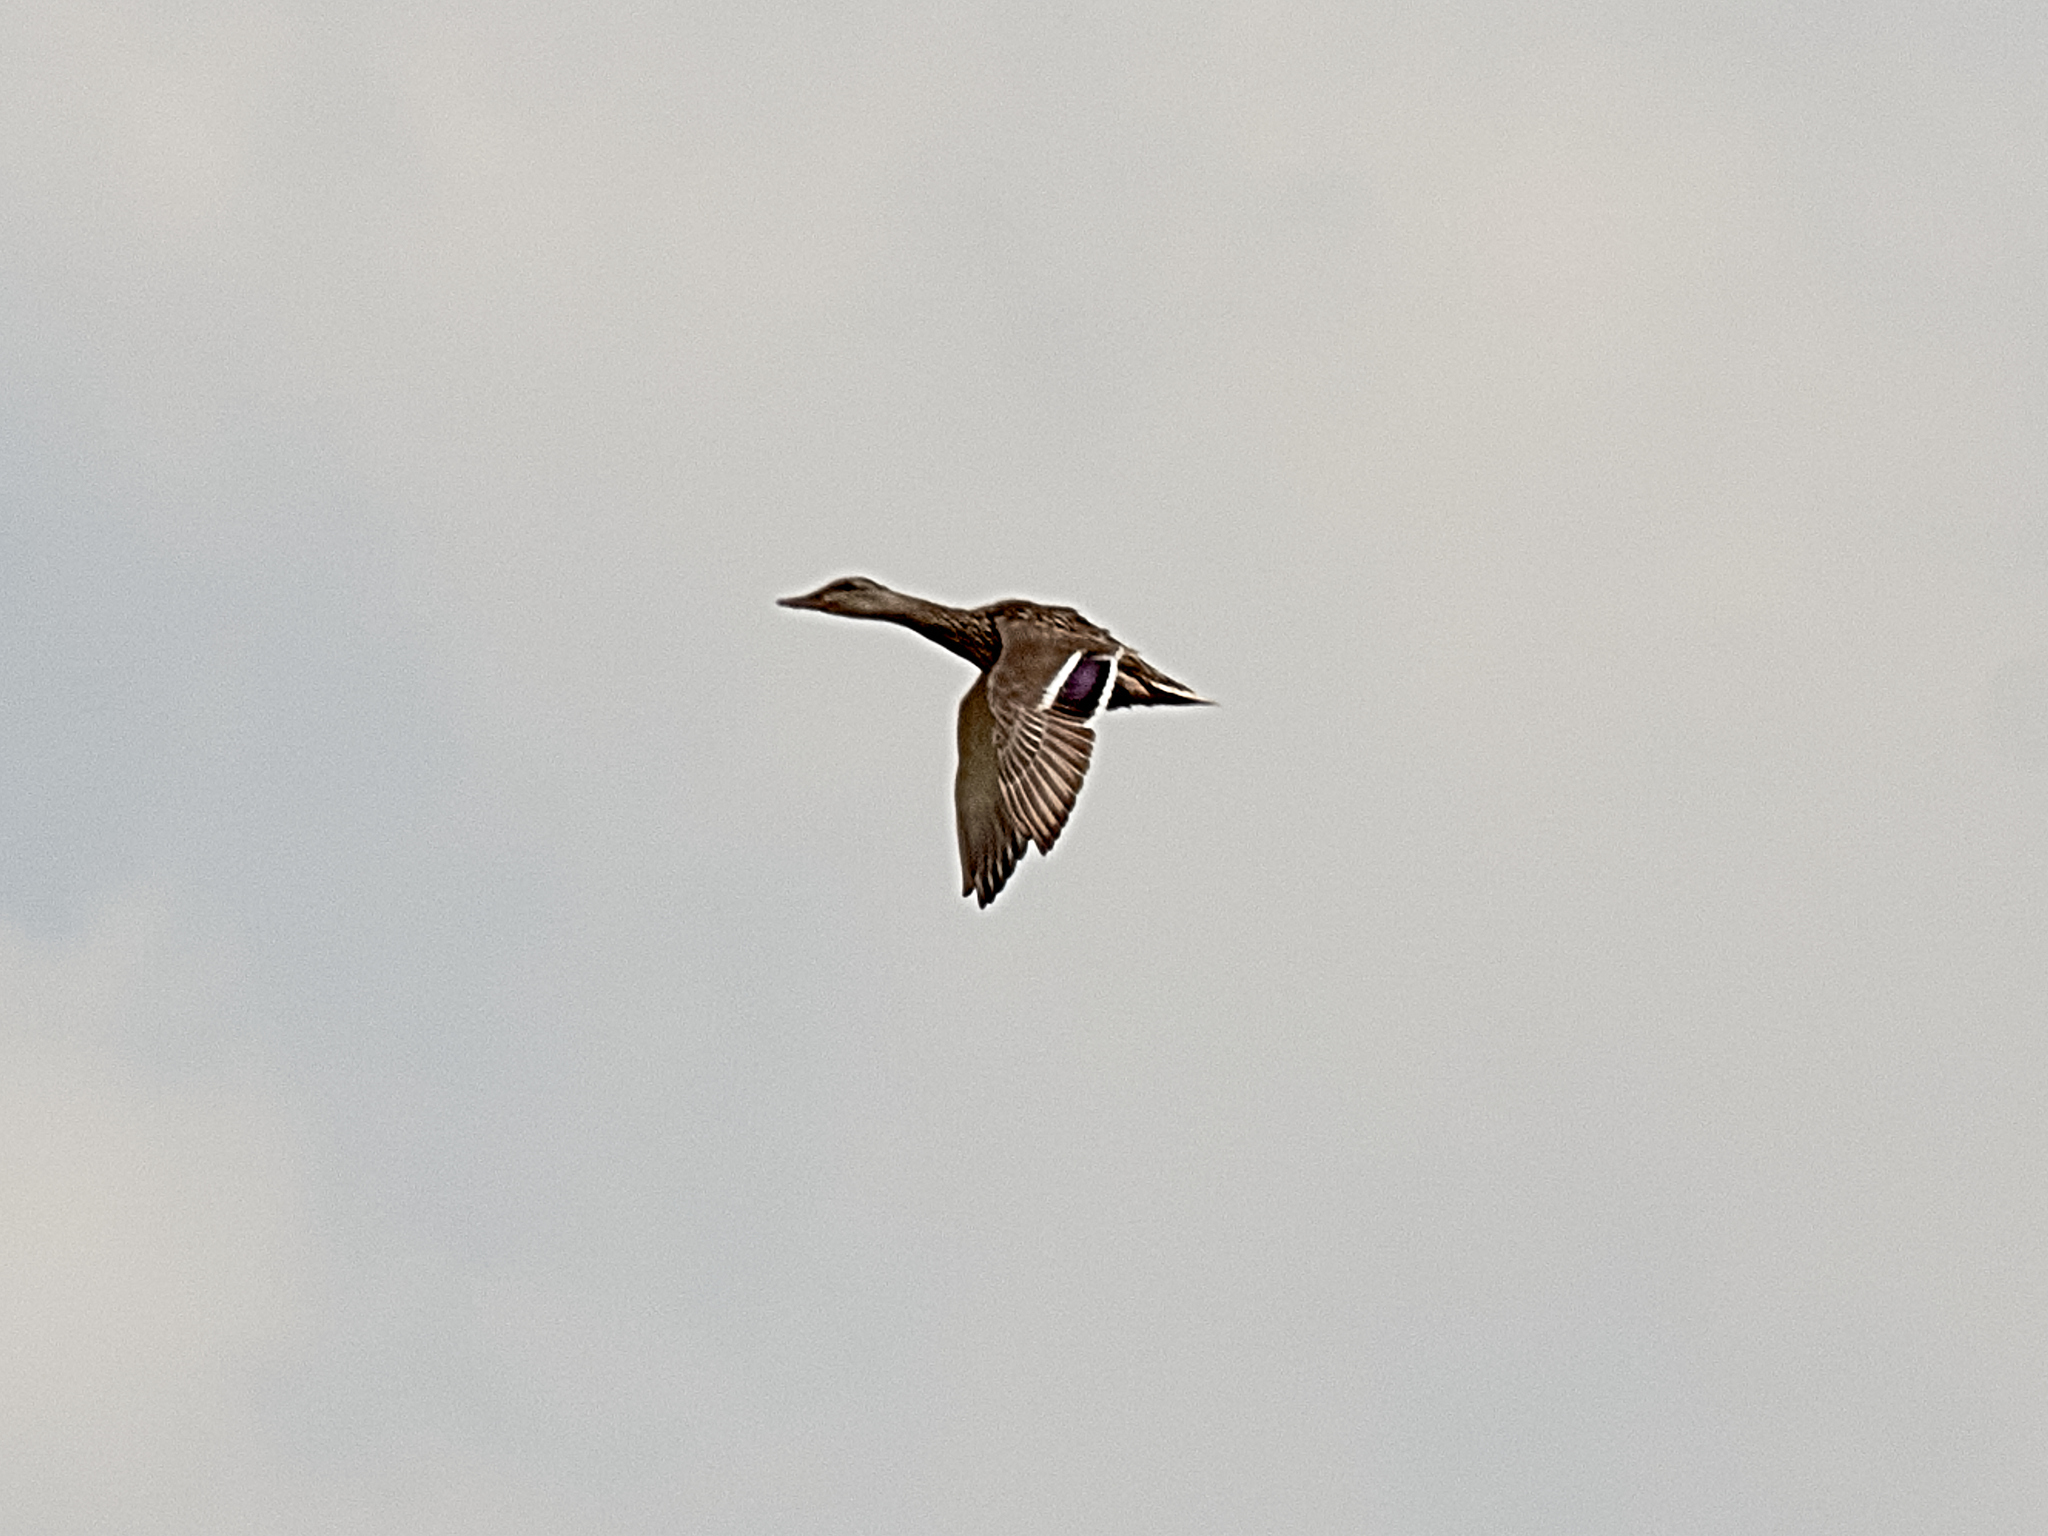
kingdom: Animalia
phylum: Chordata
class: Aves
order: Anseriformes
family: Anatidae
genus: Anas
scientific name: Anas platyrhynchos
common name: Mallard
